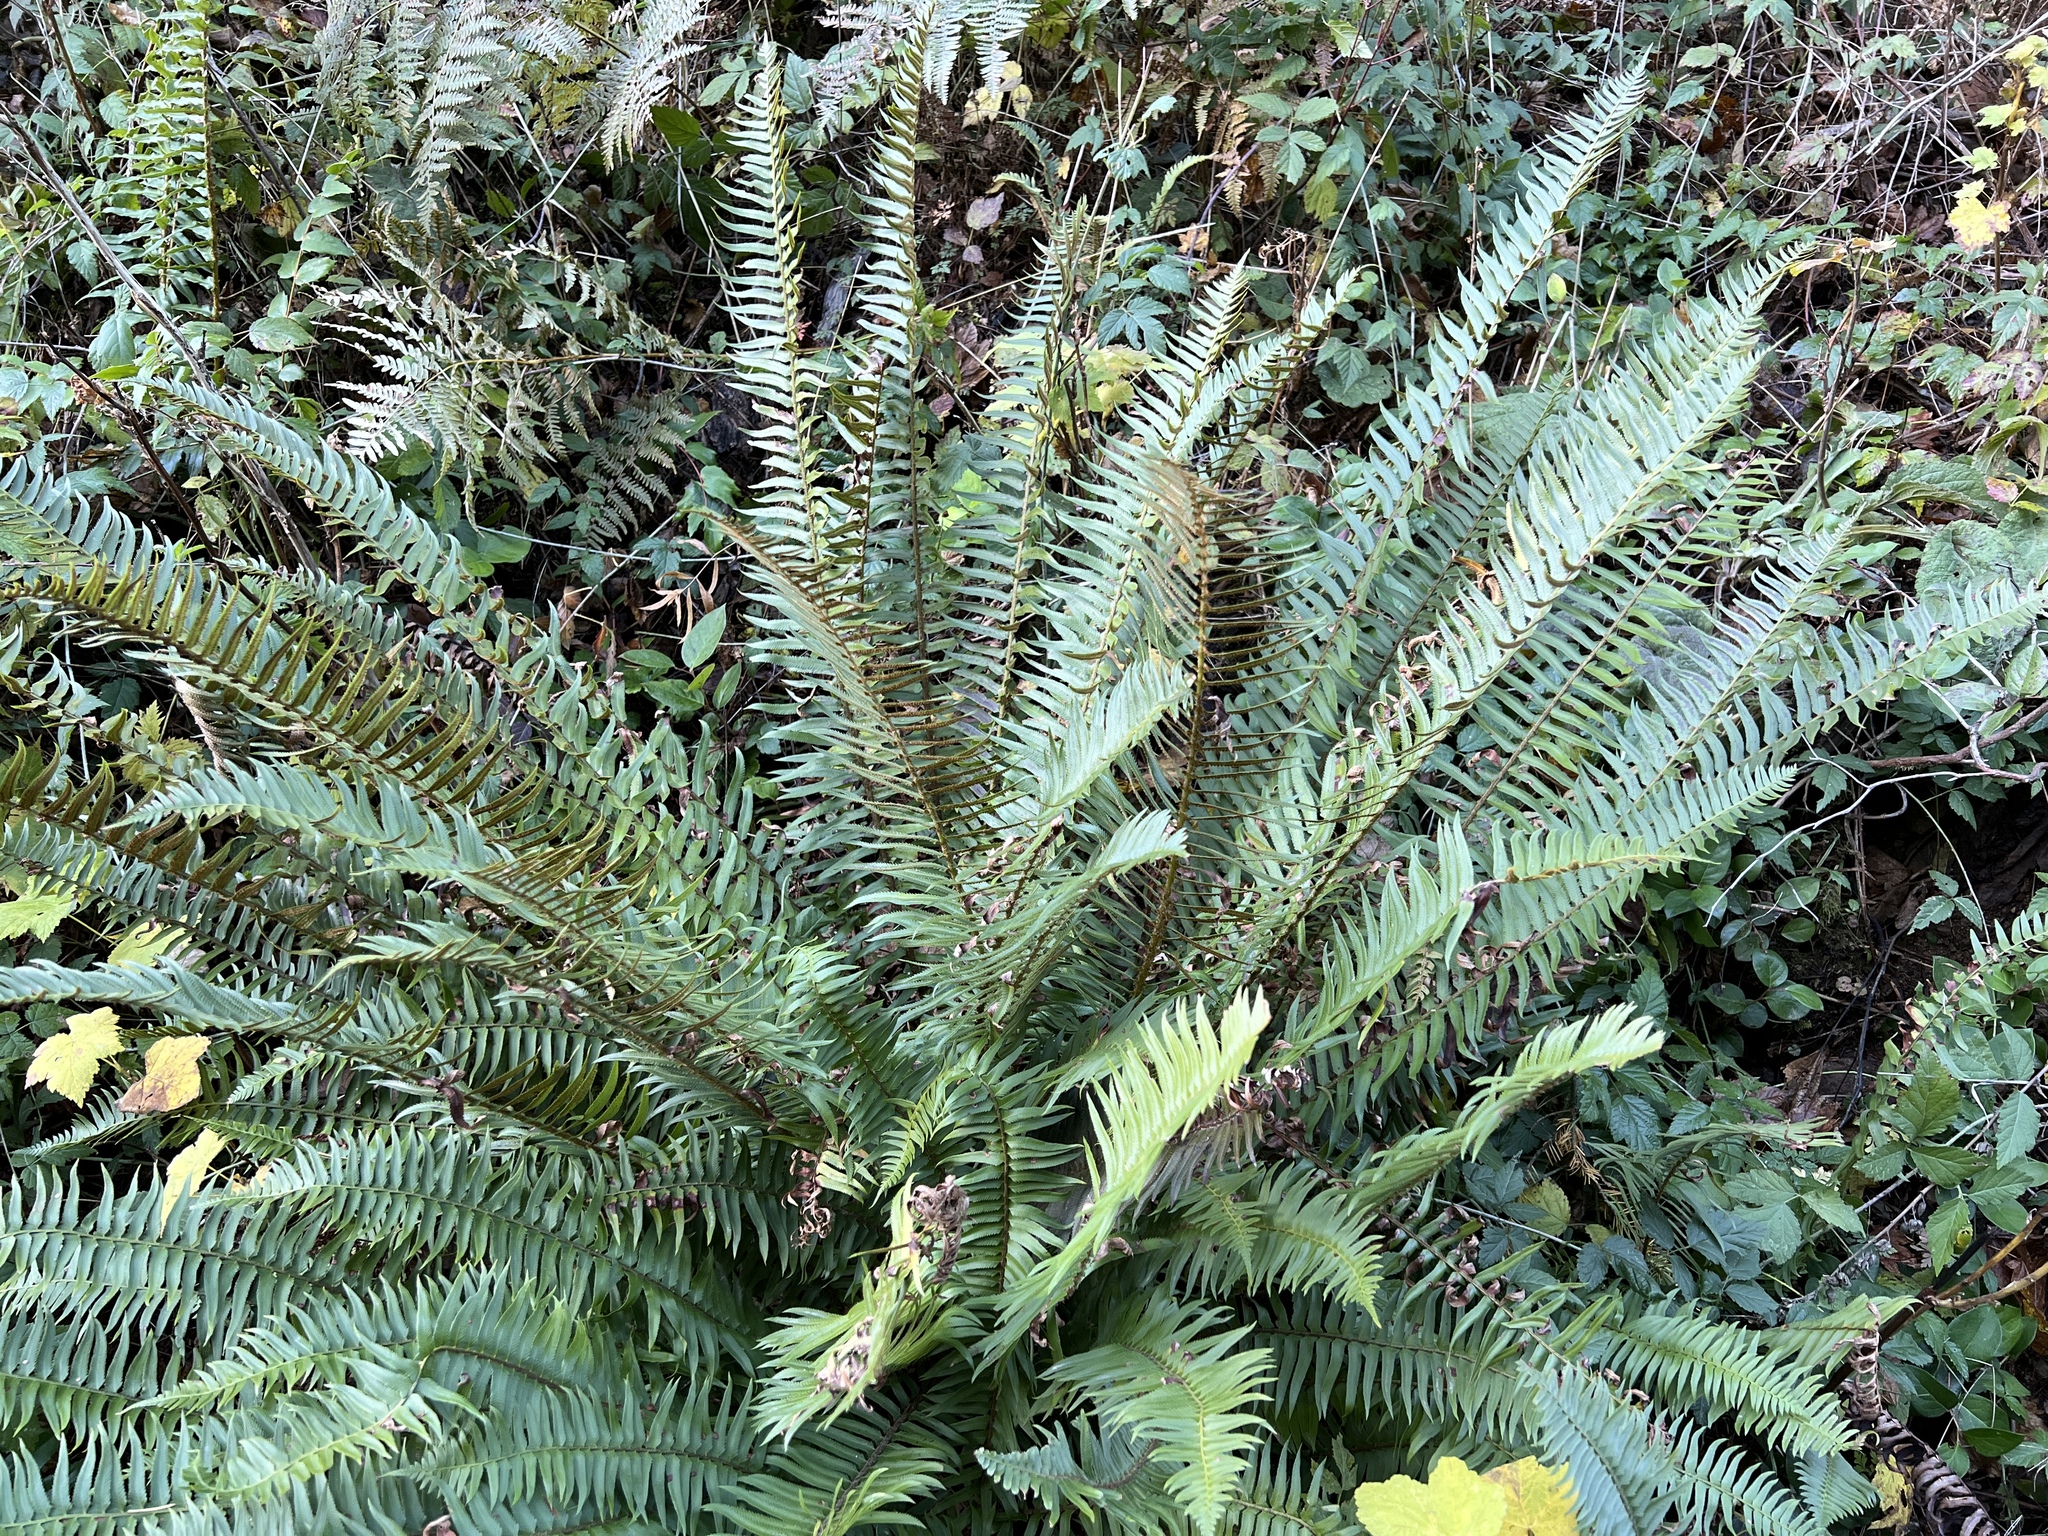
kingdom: Plantae
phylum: Tracheophyta
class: Polypodiopsida
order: Polypodiales
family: Dryopteridaceae
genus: Polystichum
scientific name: Polystichum munitum
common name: Western sword-fern
